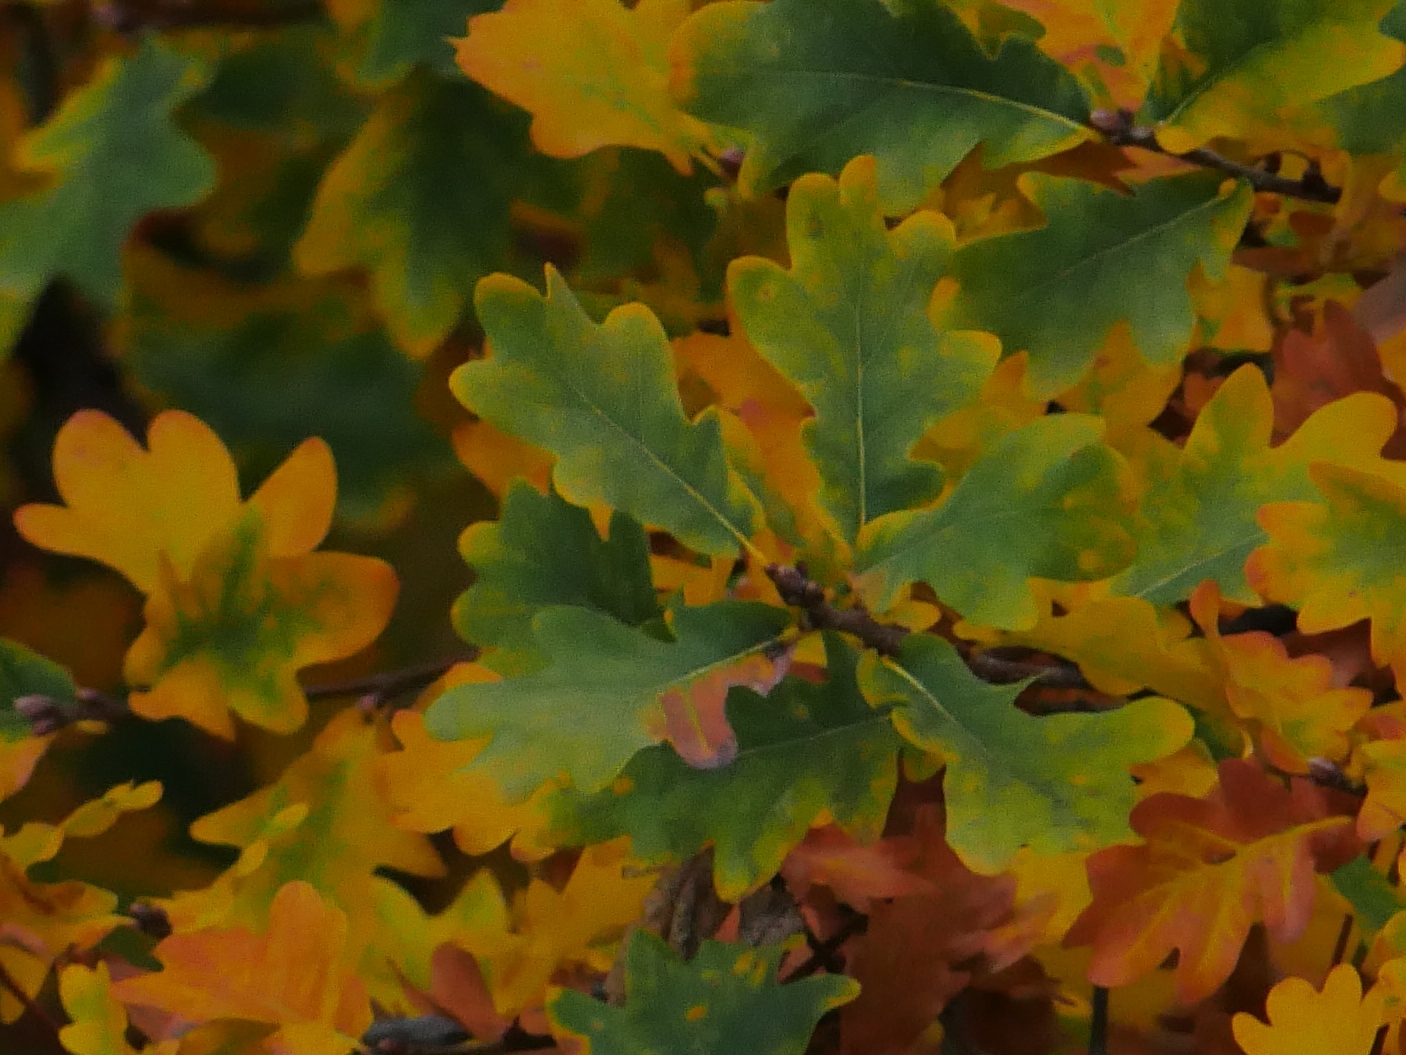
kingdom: Plantae
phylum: Tracheophyta
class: Magnoliopsida
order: Fagales
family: Fagaceae
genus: Quercus
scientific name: Quercus robur
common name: Pedunculate oak
